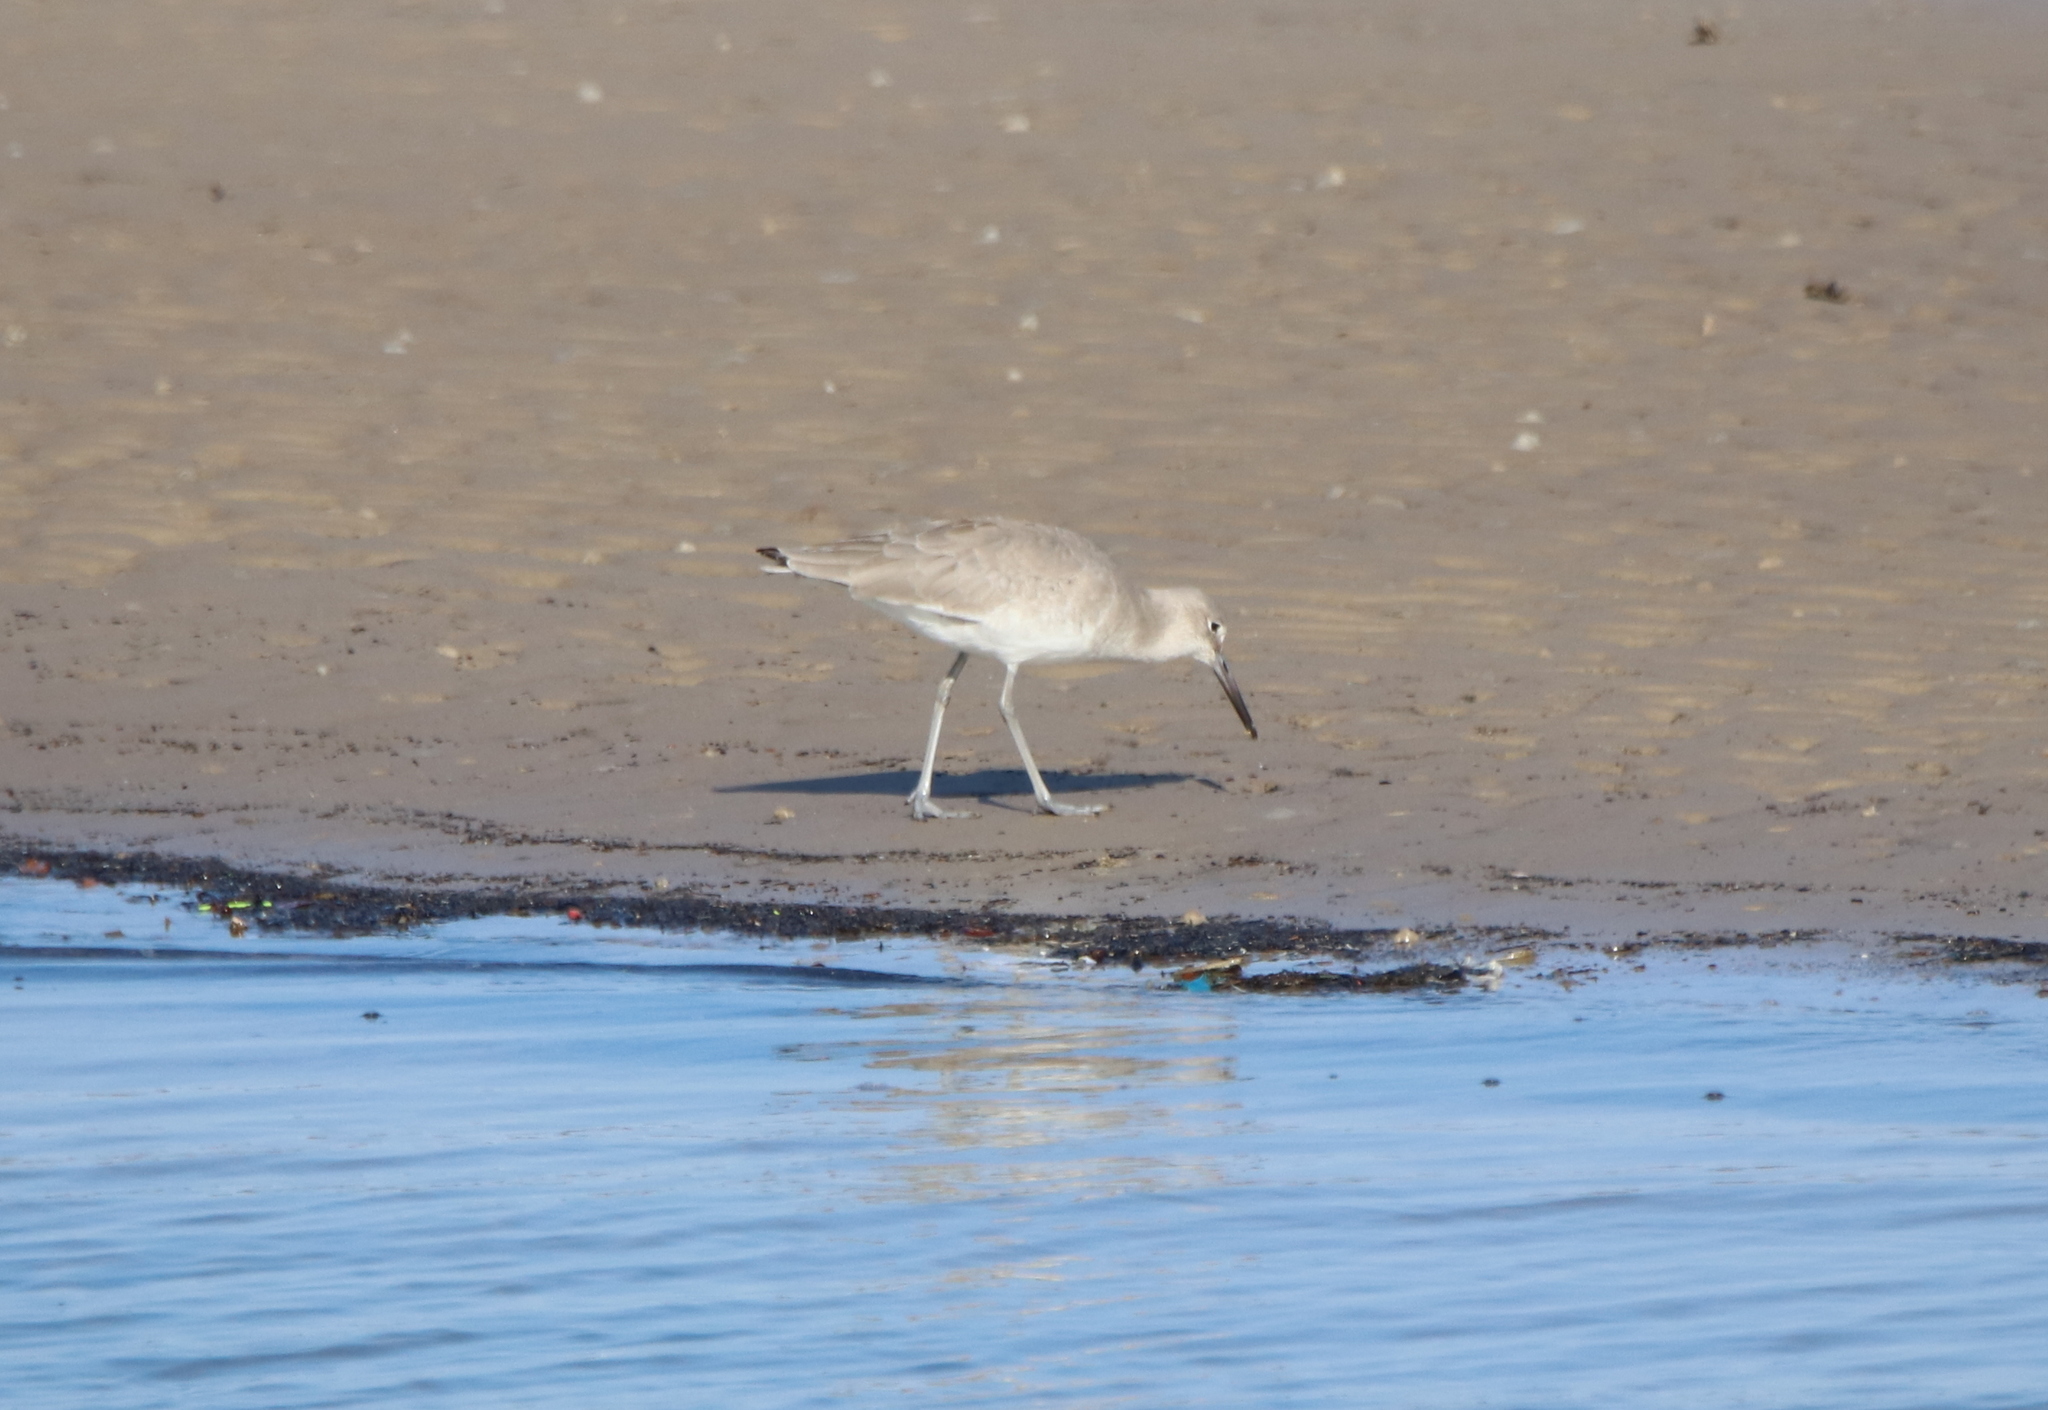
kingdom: Animalia
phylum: Chordata
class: Aves
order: Charadriiformes
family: Scolopacidae
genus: Tringa
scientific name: Tringa semipalmata
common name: Willet
